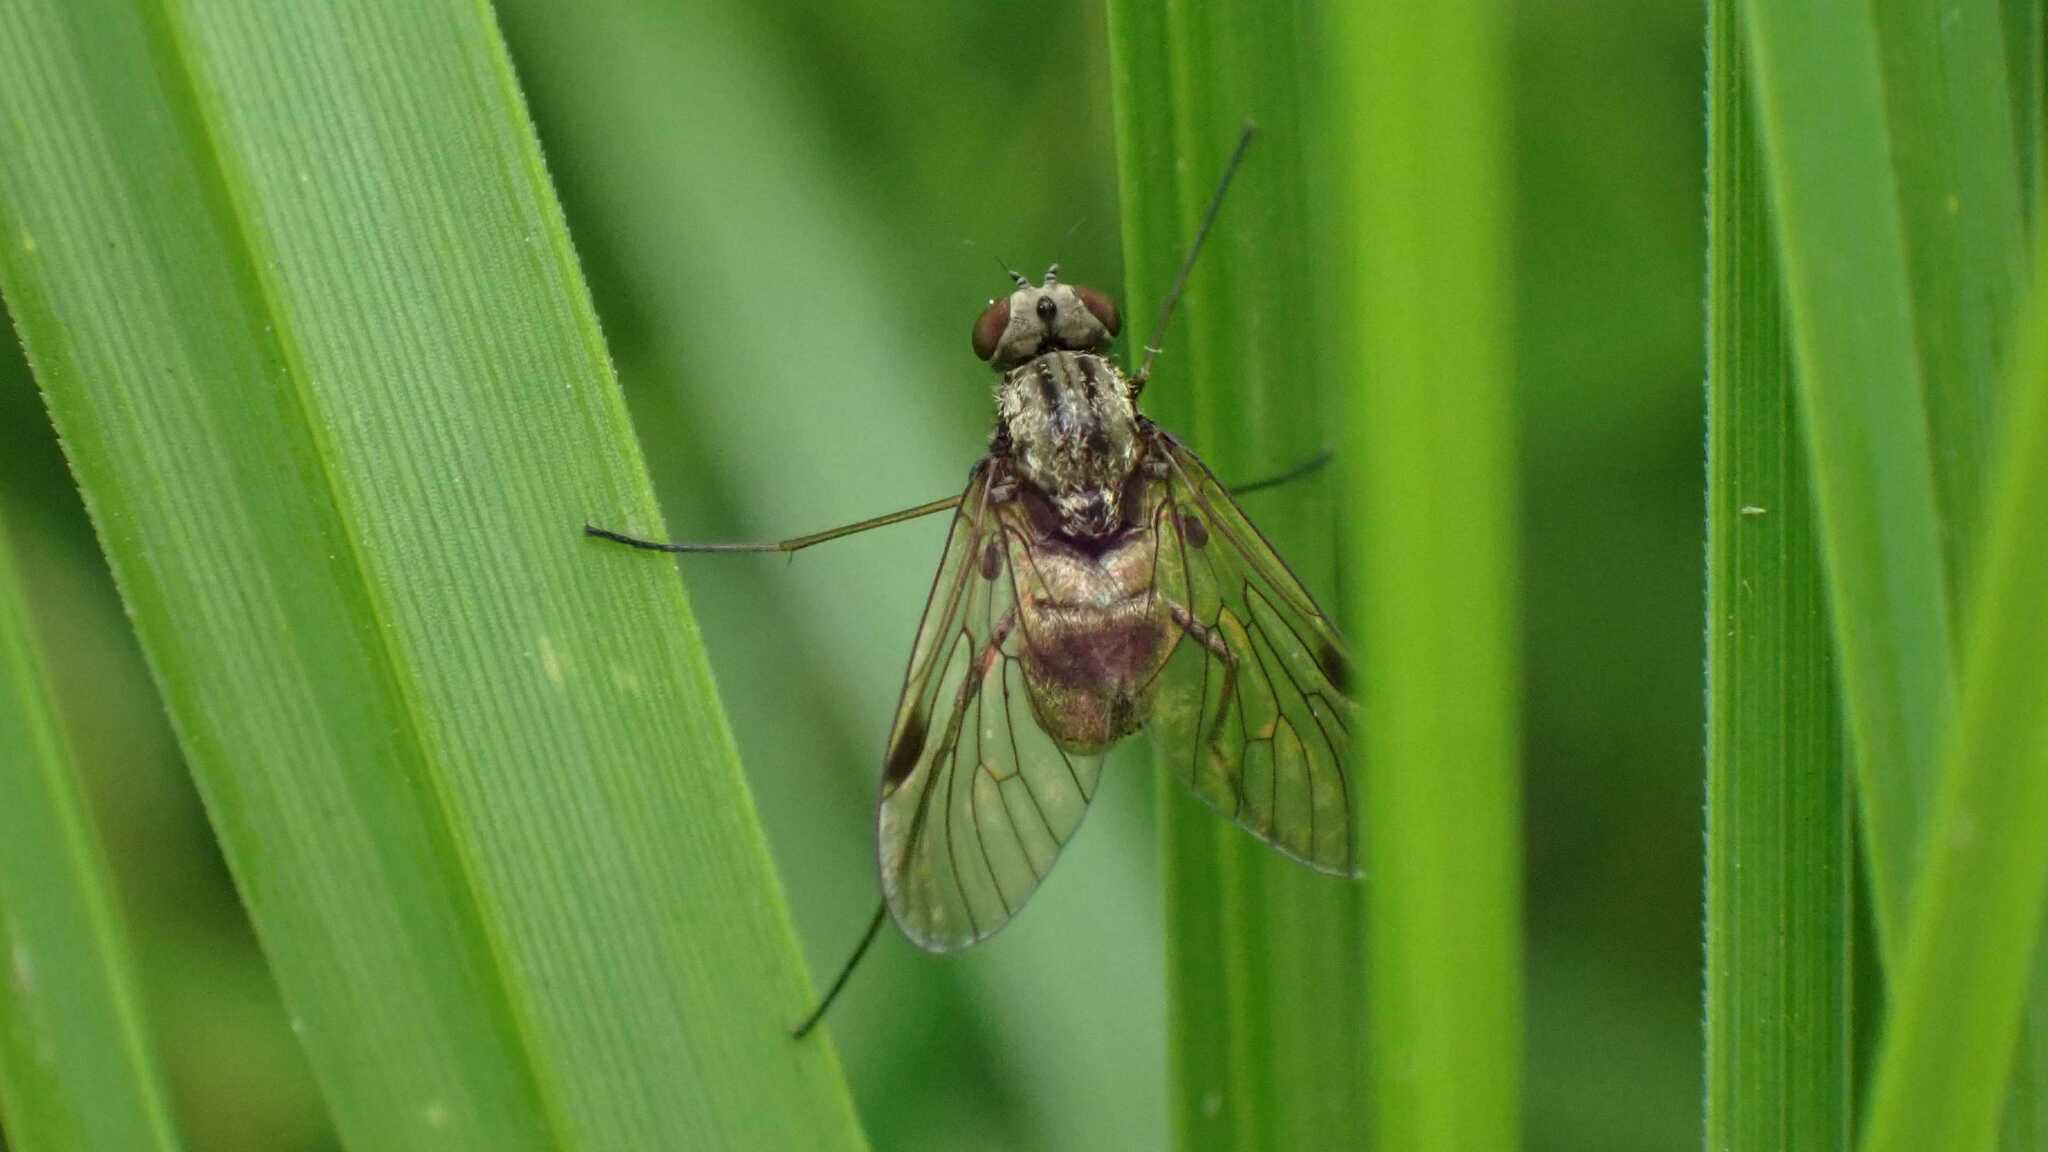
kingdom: Animalia
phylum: Arthropoda
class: Insecta
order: Diptera
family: Rhagionidae
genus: Chrysopilus
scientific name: Chrysopilus cristatus
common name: Black snipefly
